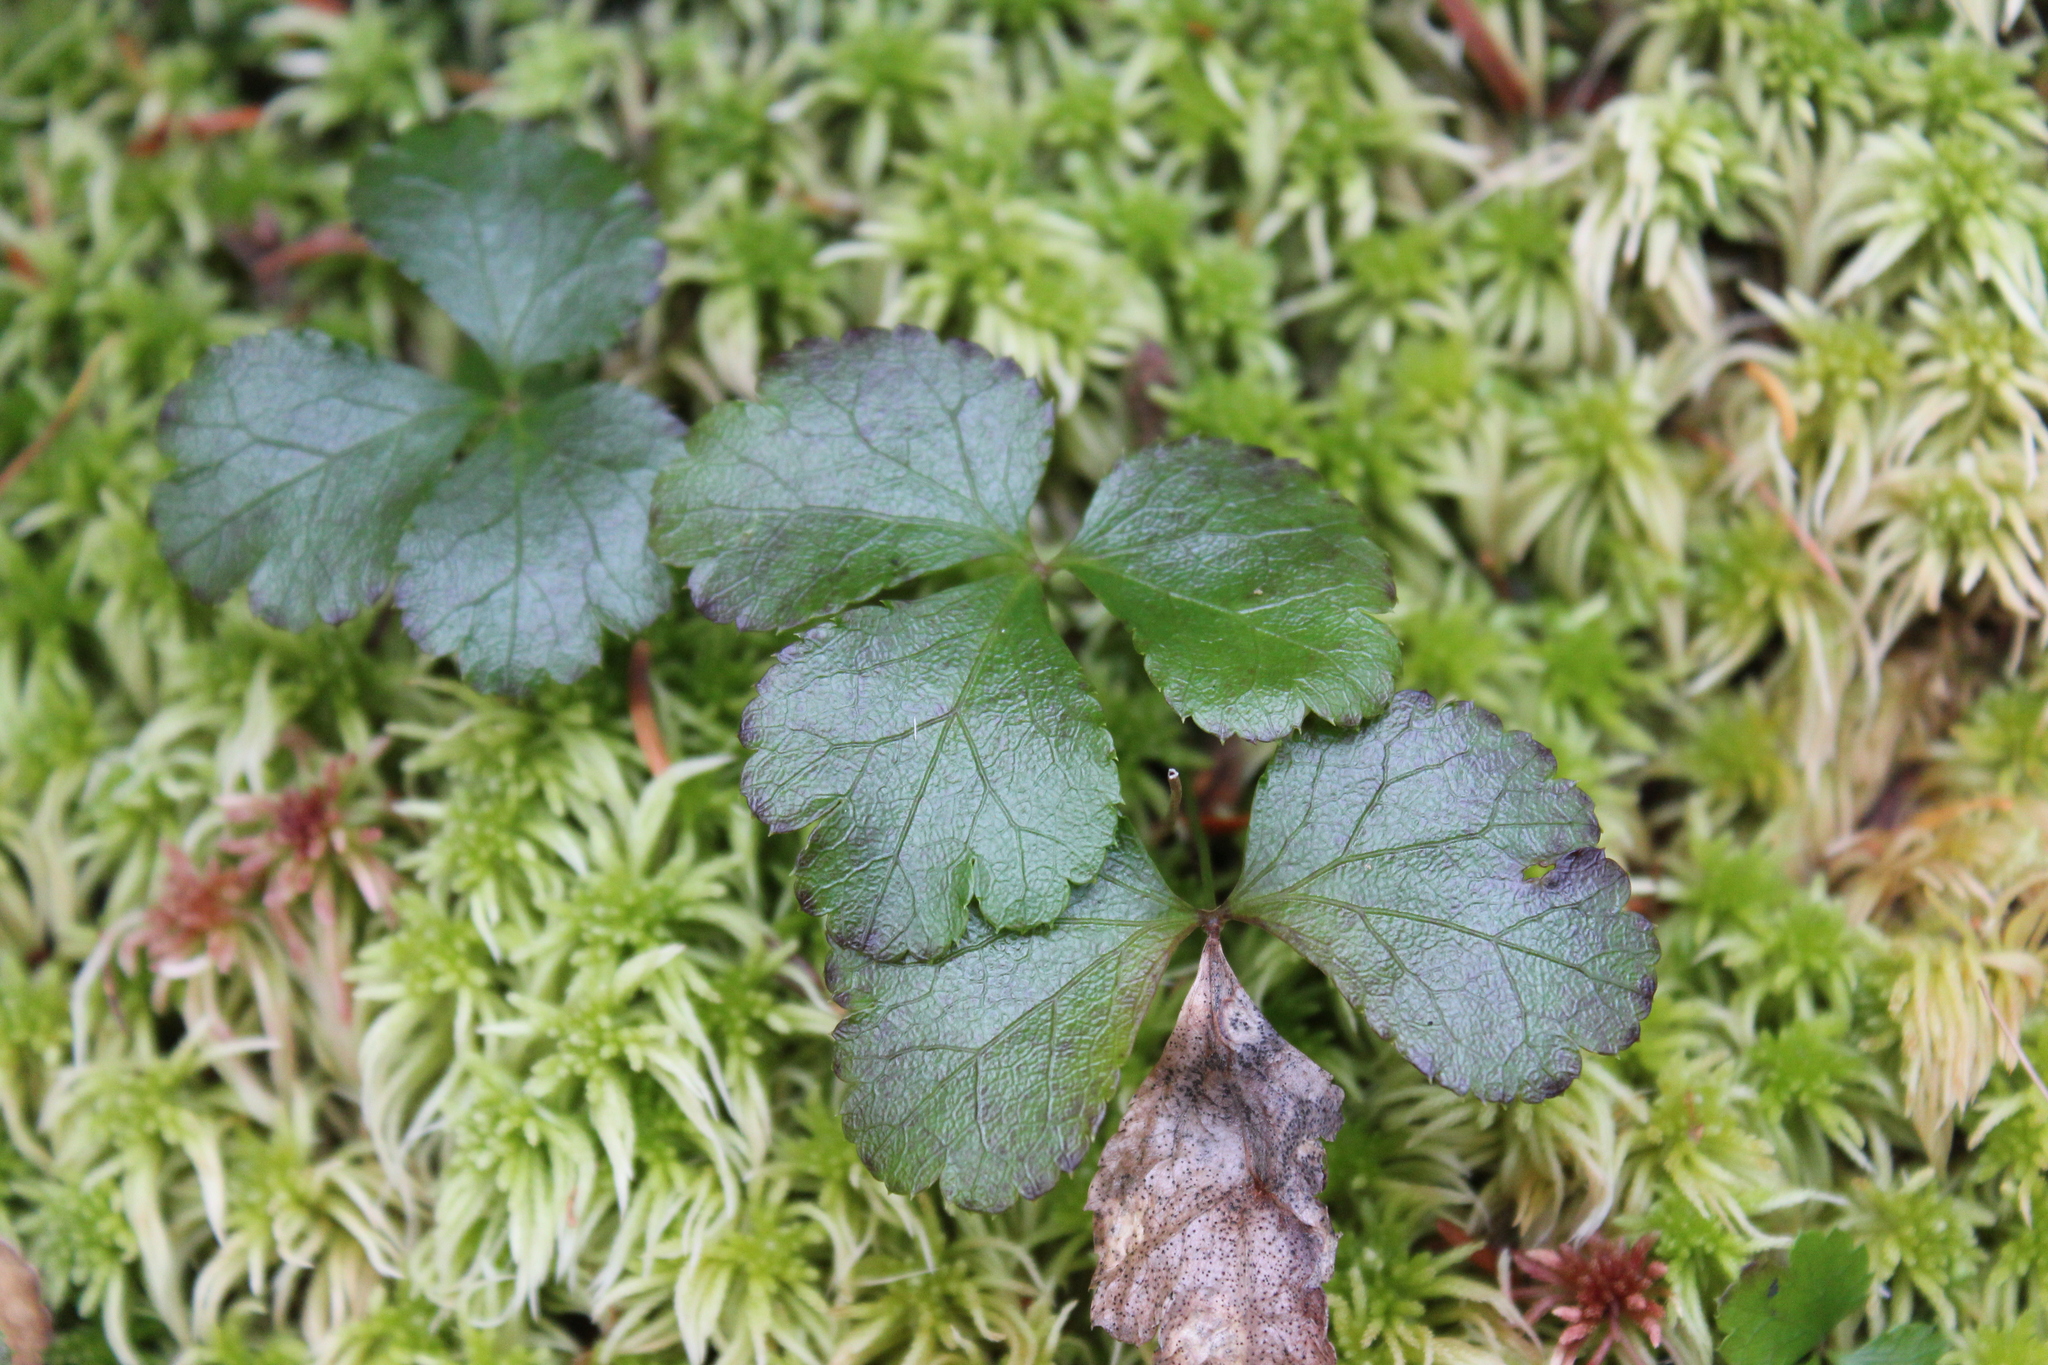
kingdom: Plantae
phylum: Tracheophyta
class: Magnoliopsida
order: Ranunculales
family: Ranunculaceae
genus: Coptis
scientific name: Coptis trifolia
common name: Canker-root
